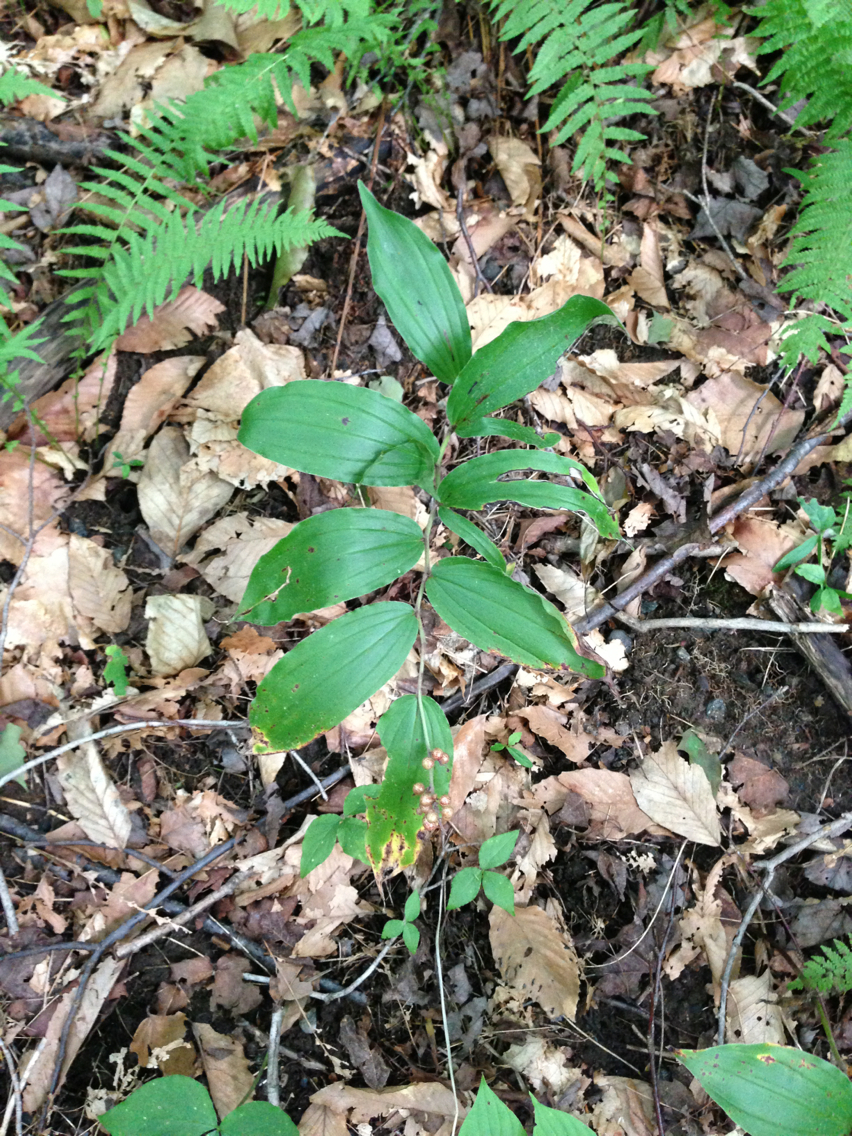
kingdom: Plantae
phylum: Tracheophyta
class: Liliopsida
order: Asparagales
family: Asparagaceae
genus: Maianthemum
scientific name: Maianthemum racemosum
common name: False spikenard
